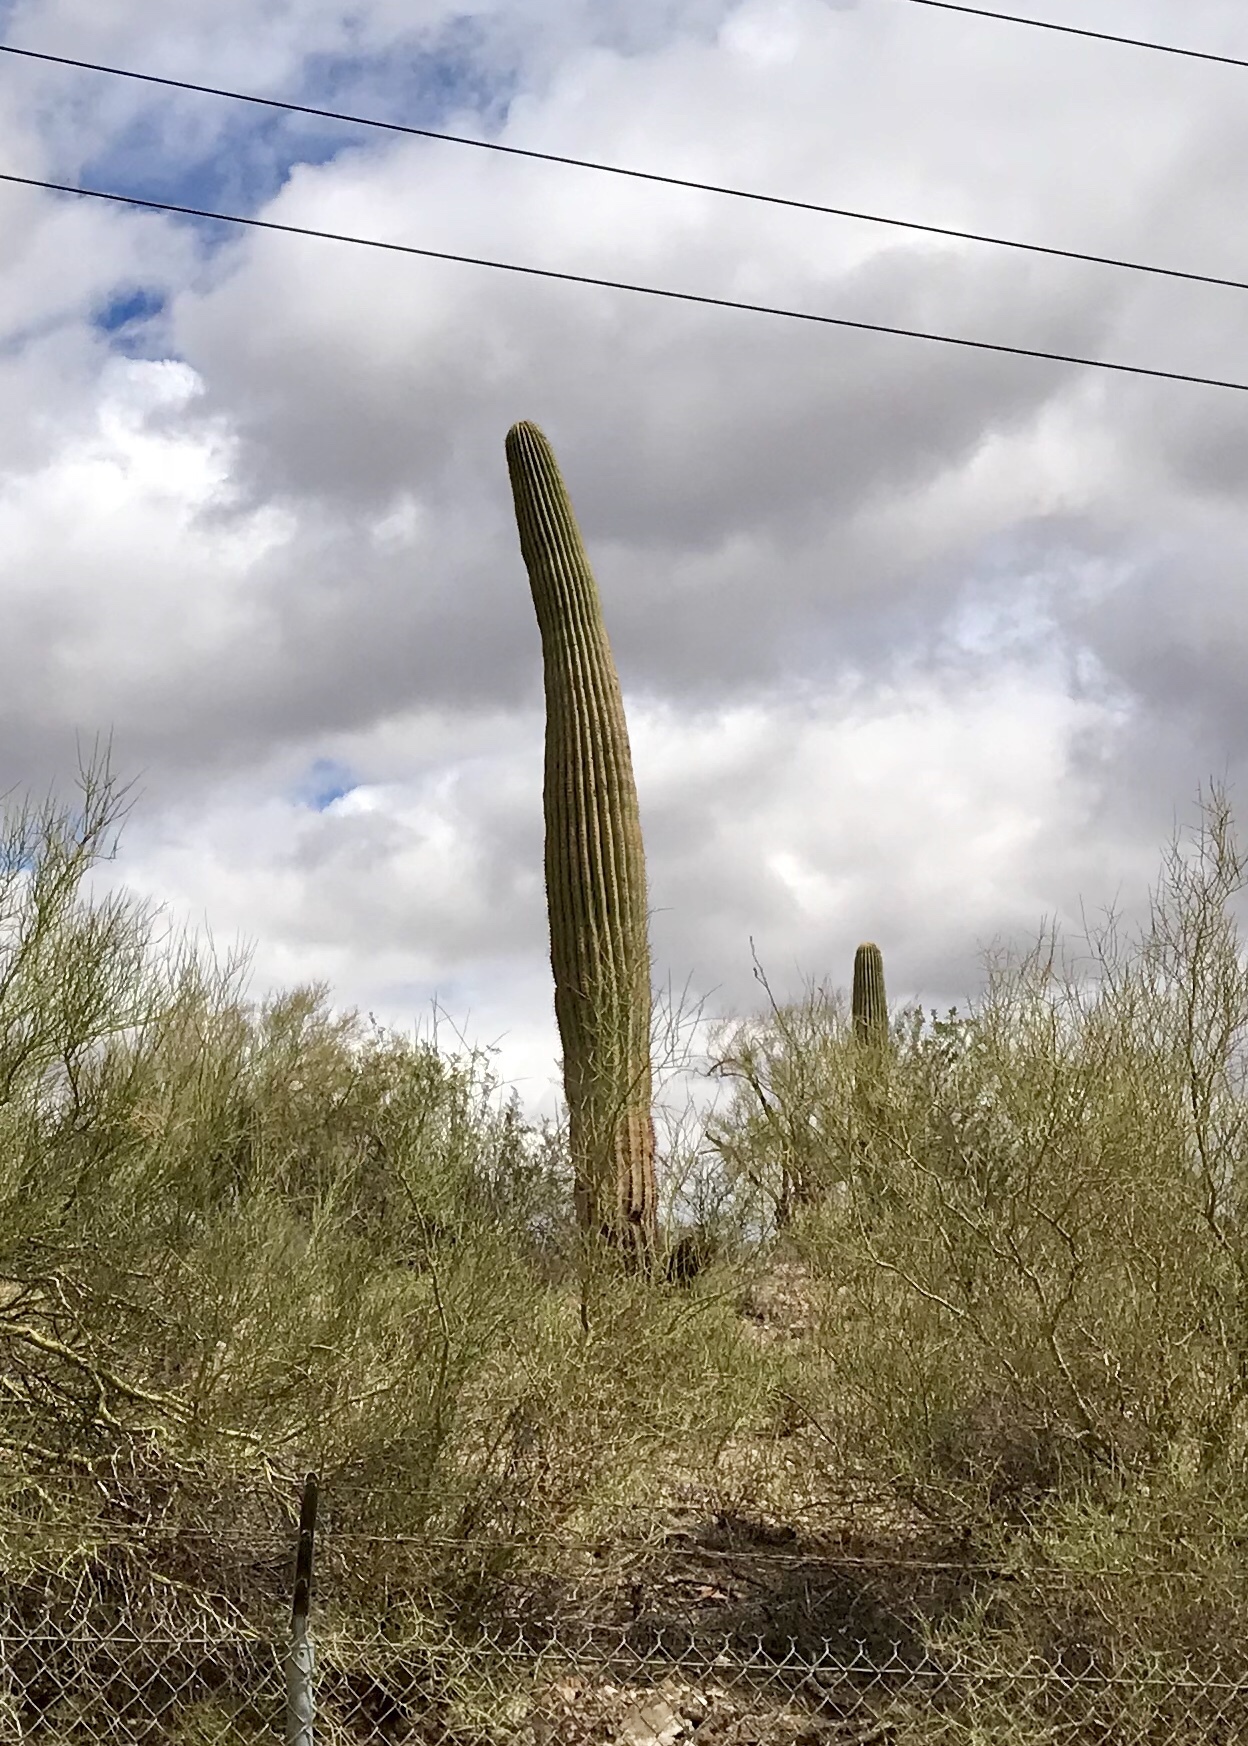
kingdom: Plantae
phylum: Tracheophyta
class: Magnoliopsida
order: Caryophyllales
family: Cactaceae
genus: Carnegiea
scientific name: Carnegiea gigantea
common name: Saguaro
